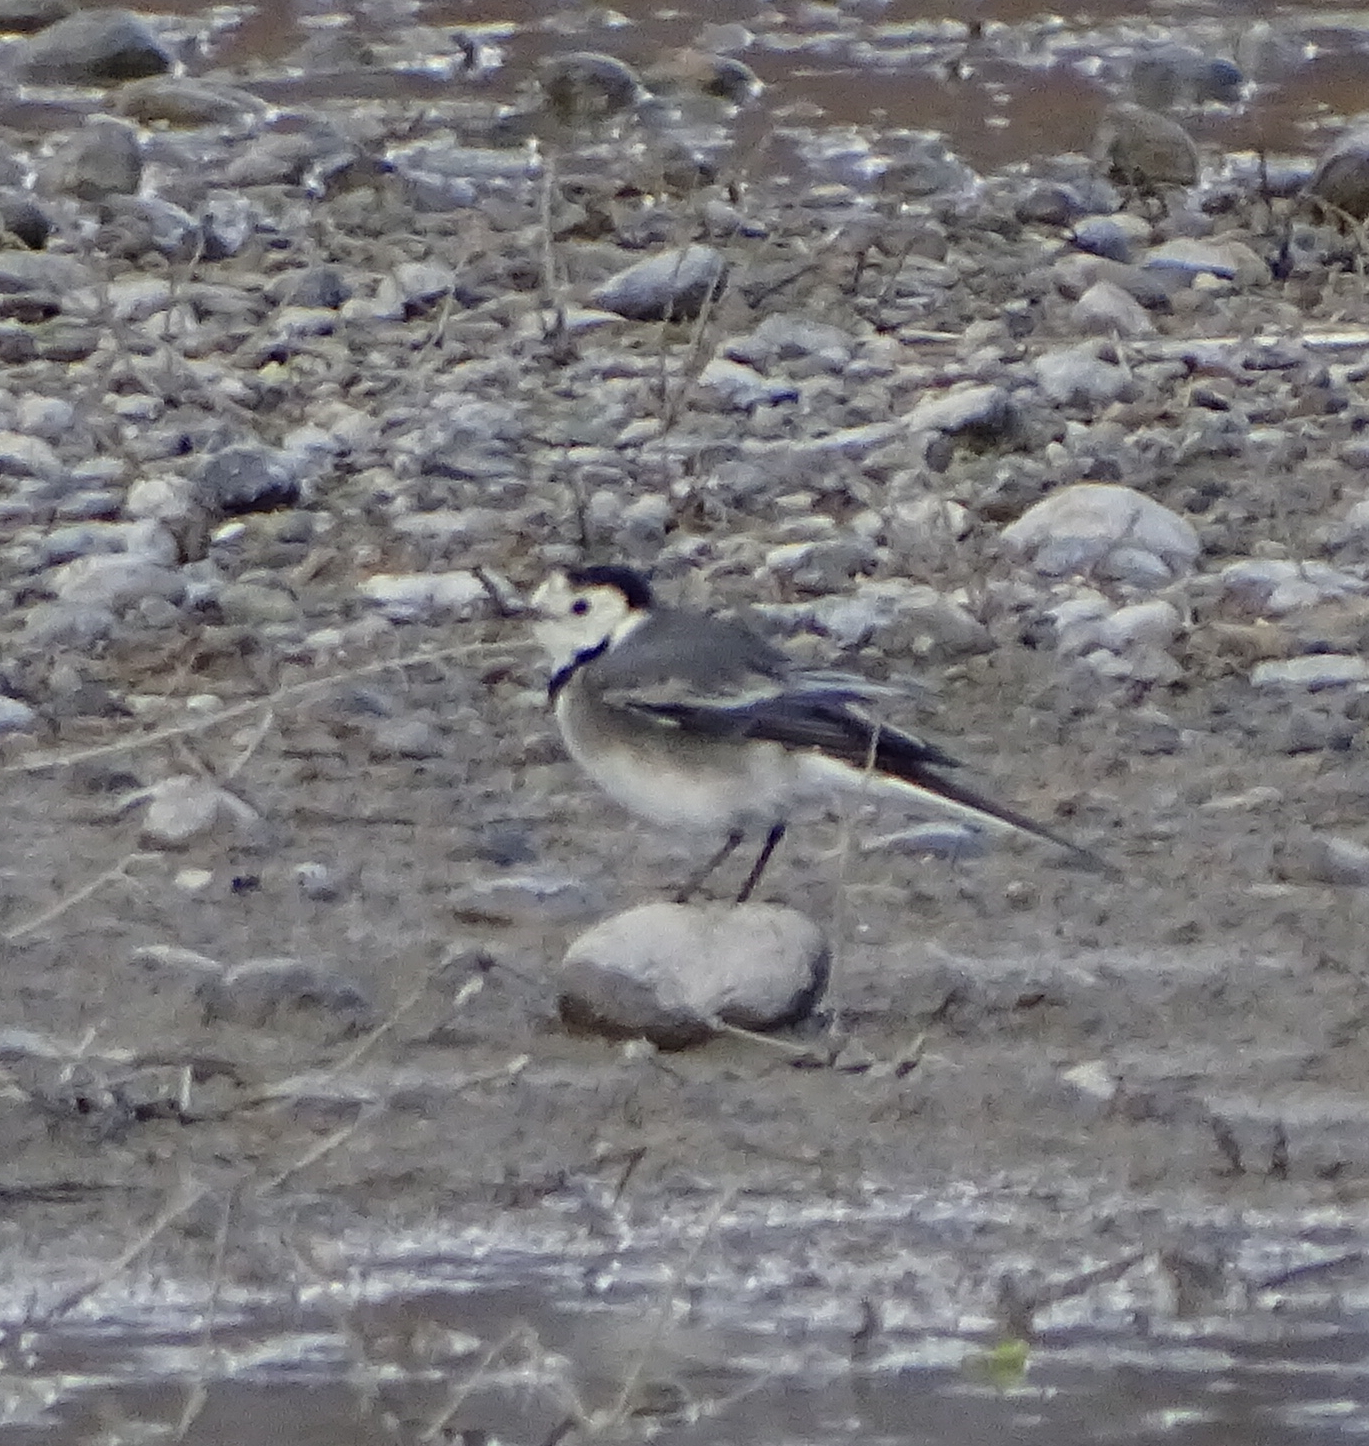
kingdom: Animalia
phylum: Chordata
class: Aves
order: Passeriformes
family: Motacillidae
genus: Motacilla
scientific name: Motacilla alba
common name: White wagtail
